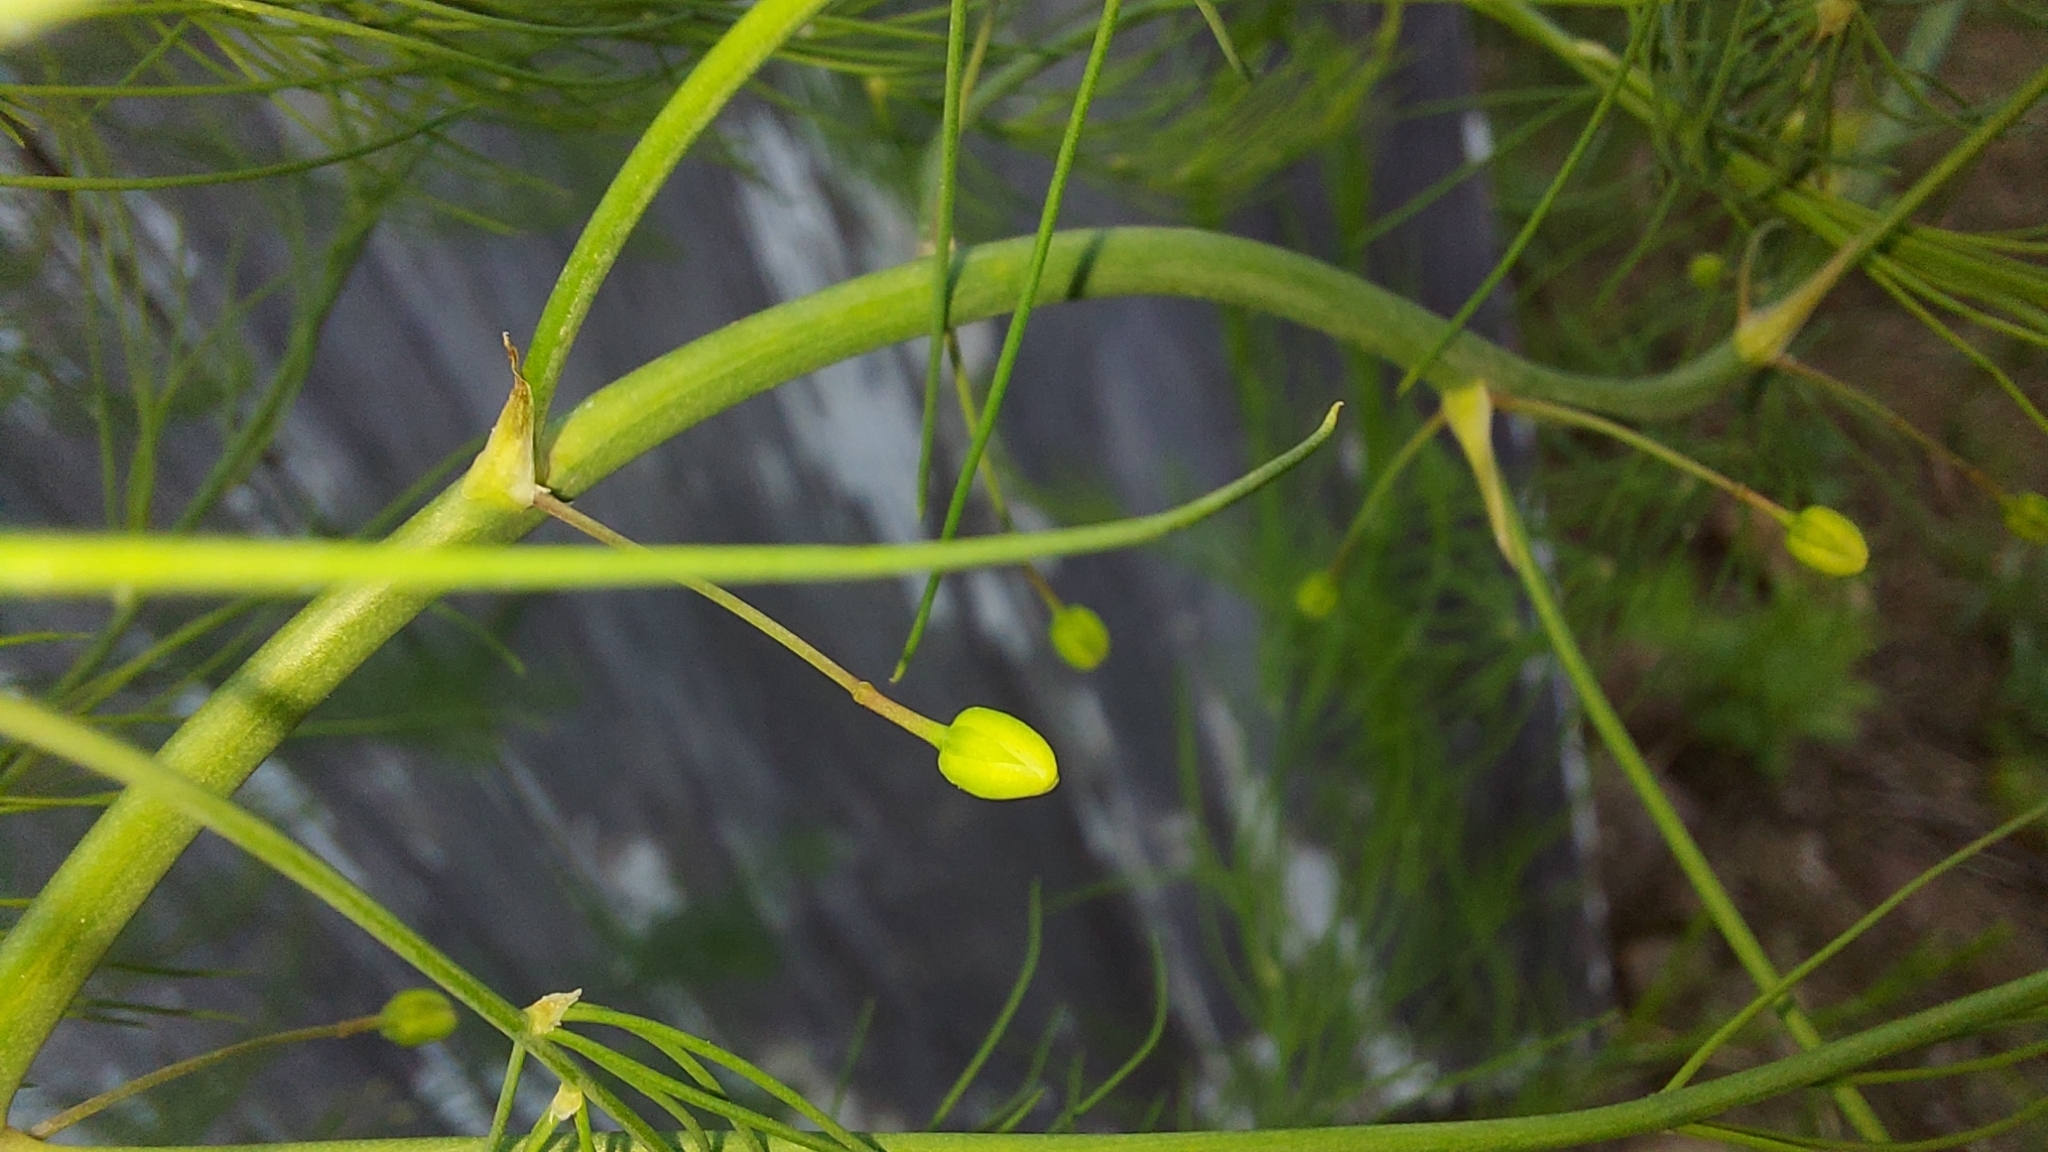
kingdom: Plantae
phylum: Tracheophyta
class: Liliopsida
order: Asparagales
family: Asparagaceae
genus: Asparagus
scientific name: Asparagus officinalis
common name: Garden asparagus
